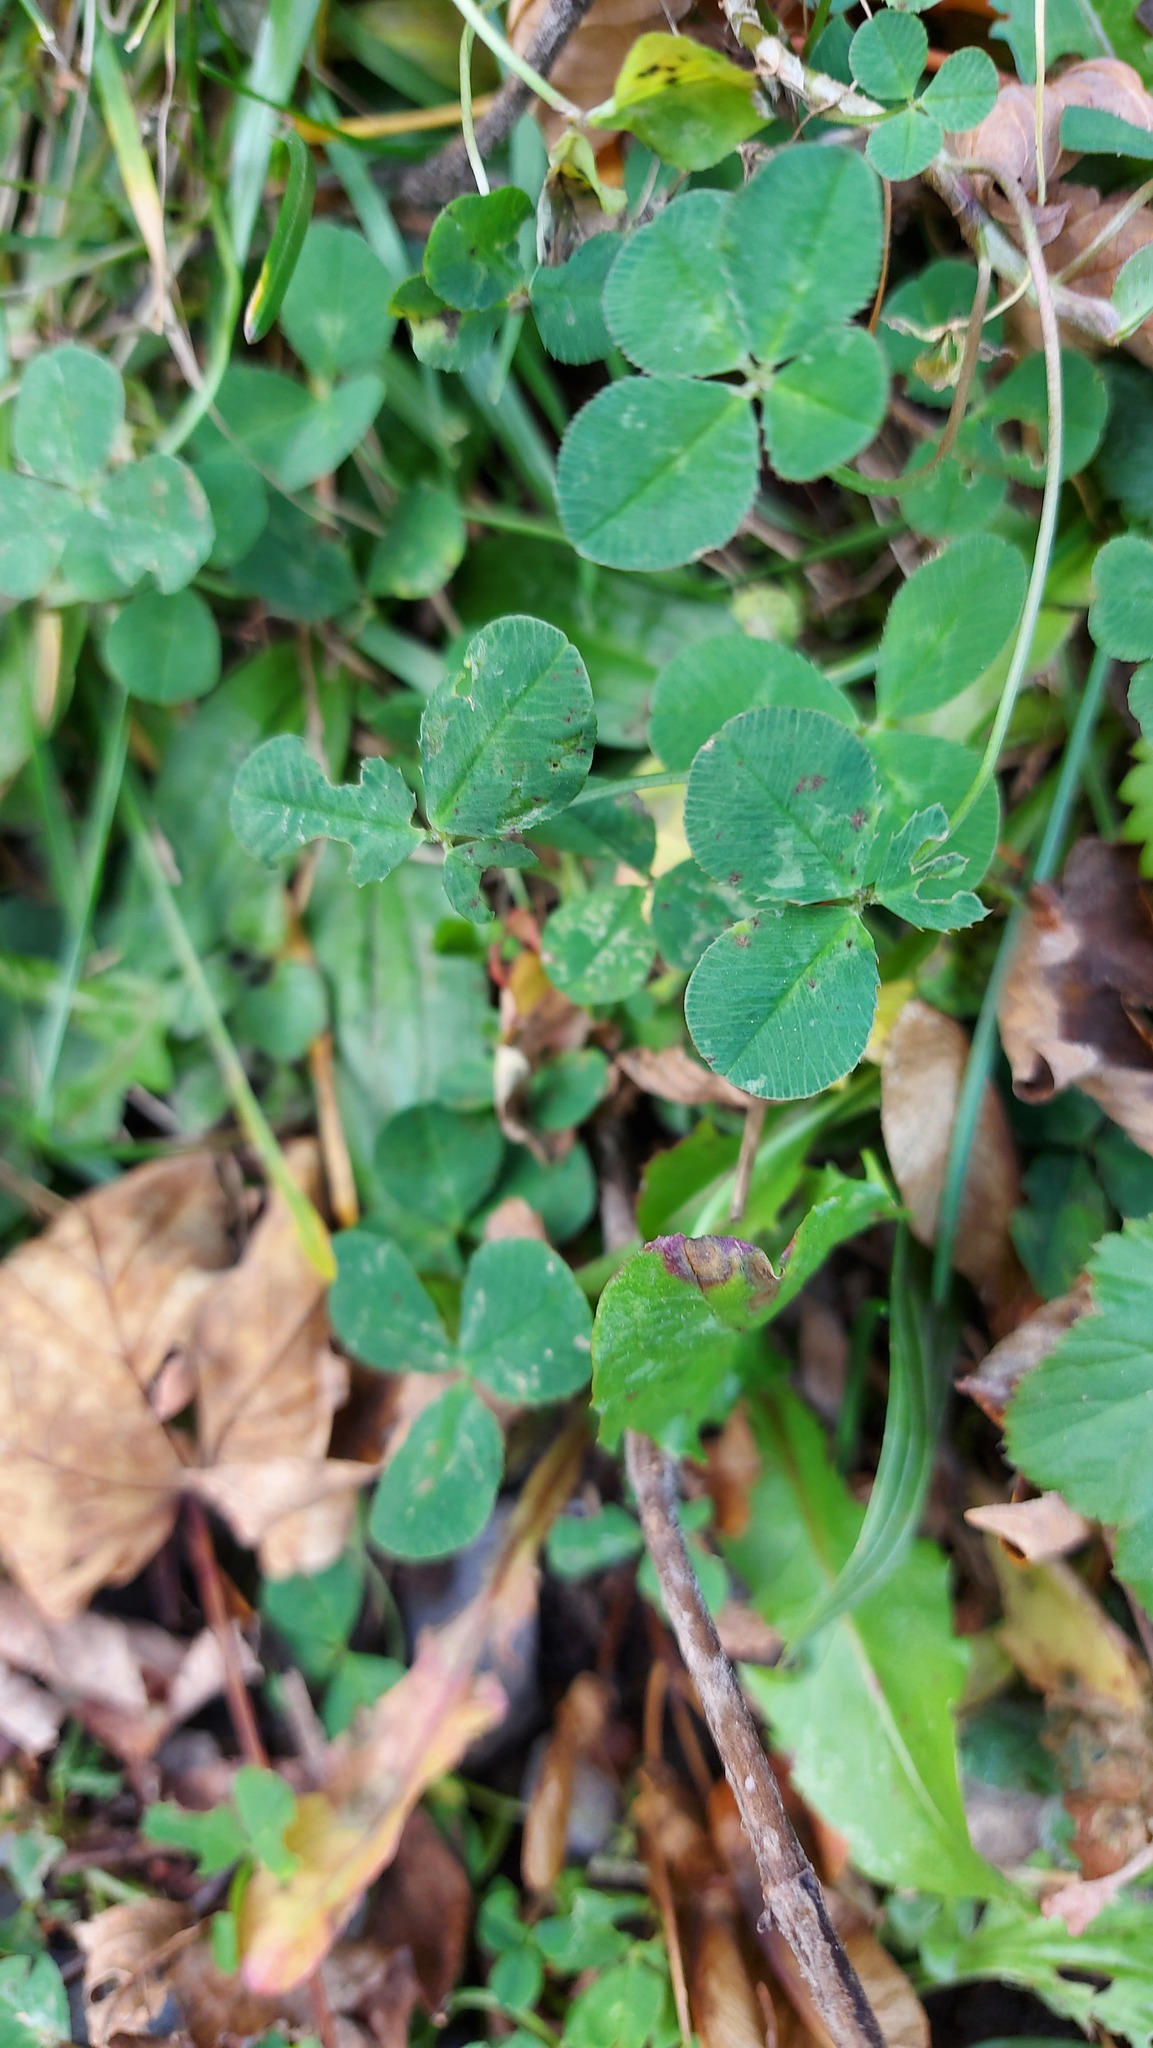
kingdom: Plantae
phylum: Tracheophyta
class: Magnoliopsida
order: Fabales
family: Fabaceae
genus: Trifolium
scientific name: Trifolium repens
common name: White clover
